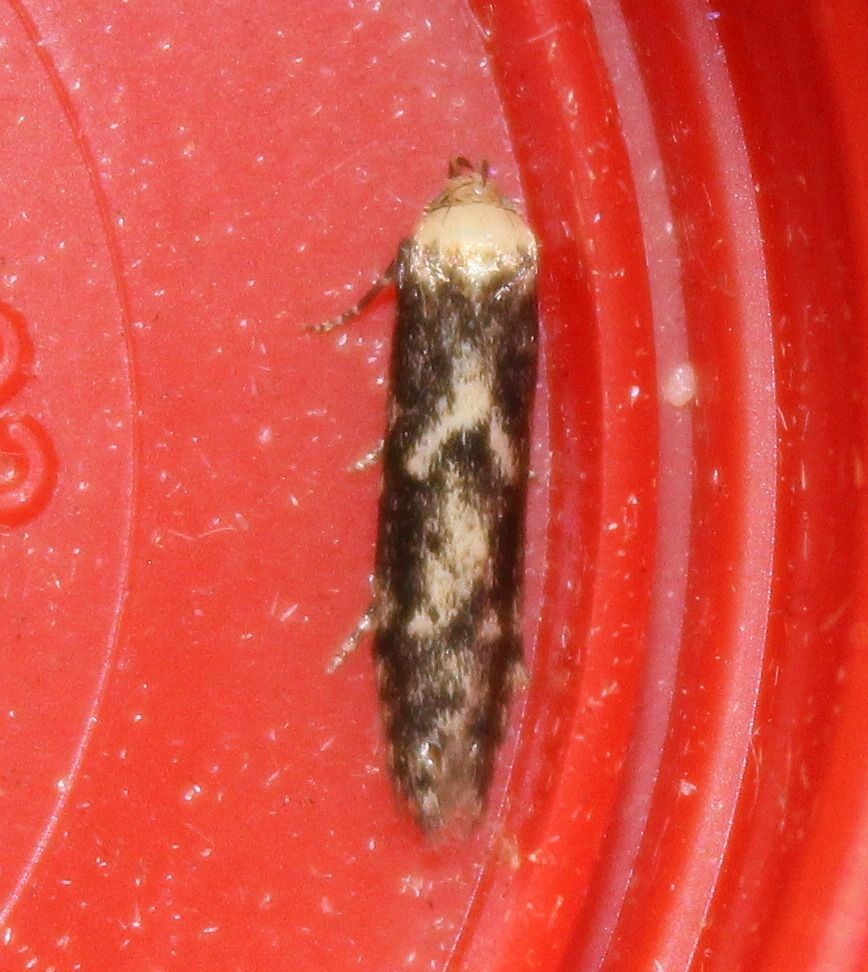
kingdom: Animalia
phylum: Arthropoda
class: Insecta
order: Lepidoptera
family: Blastobasidae
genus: Blastobasis
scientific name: Blastobasis adustella
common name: Dingy dowd
